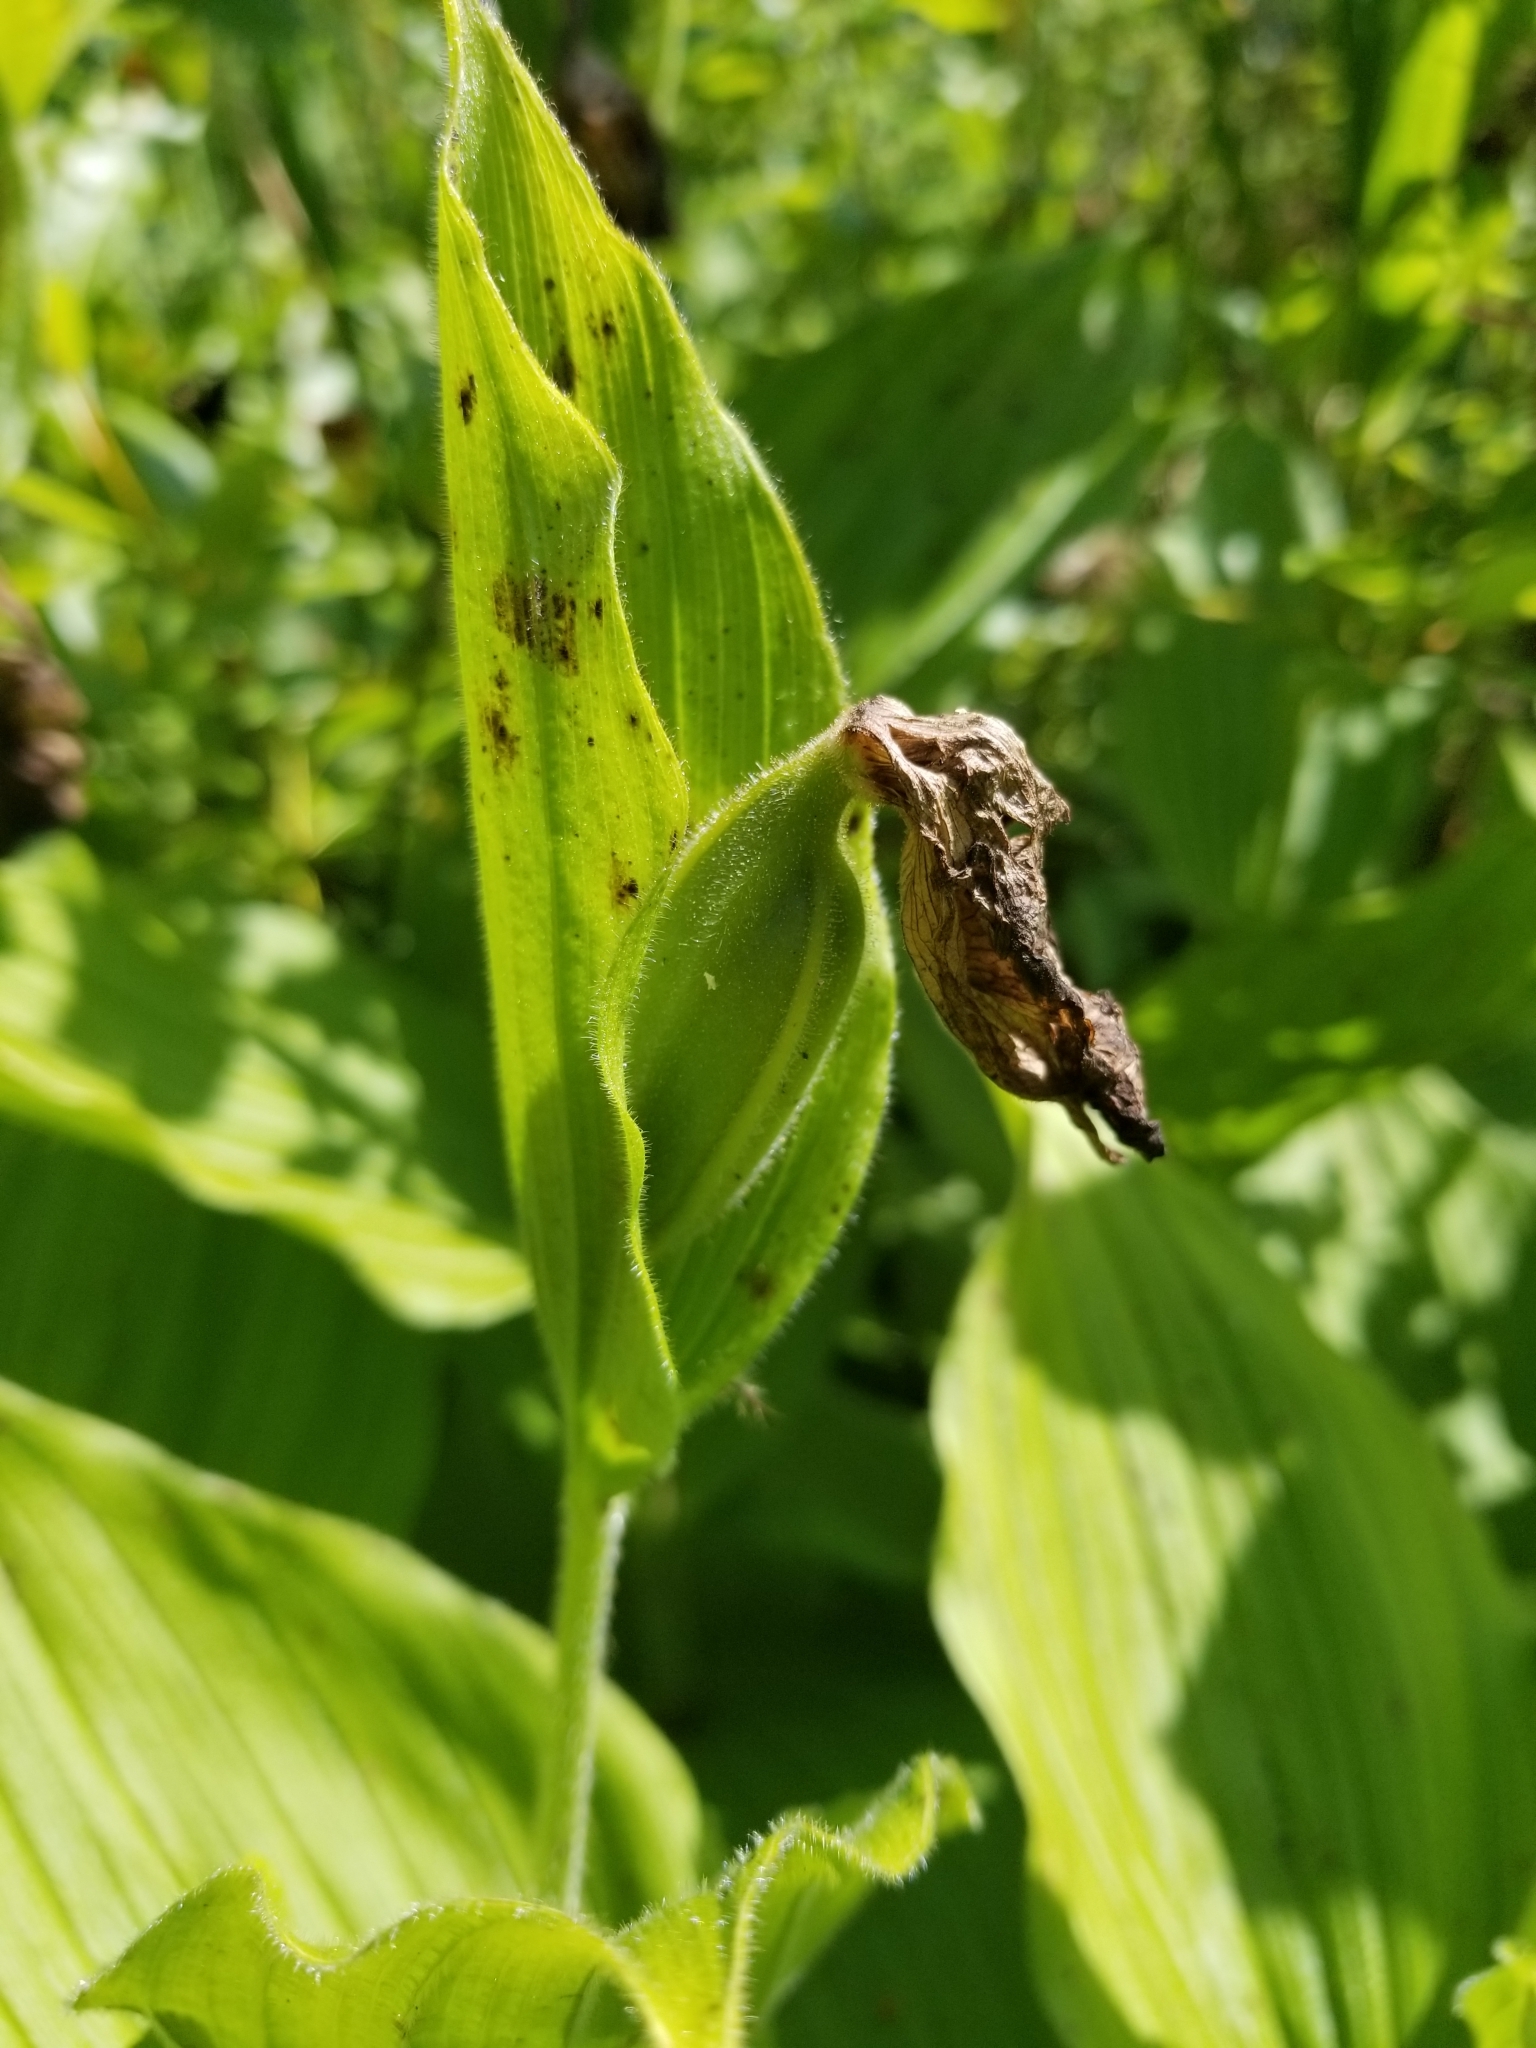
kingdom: Plantae
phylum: Tracheophyta
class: Liliopsida
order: Asparagales
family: Orchidaceae
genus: Cypripedium
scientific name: Cypripedium reginae
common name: Queen lady's-slipper
